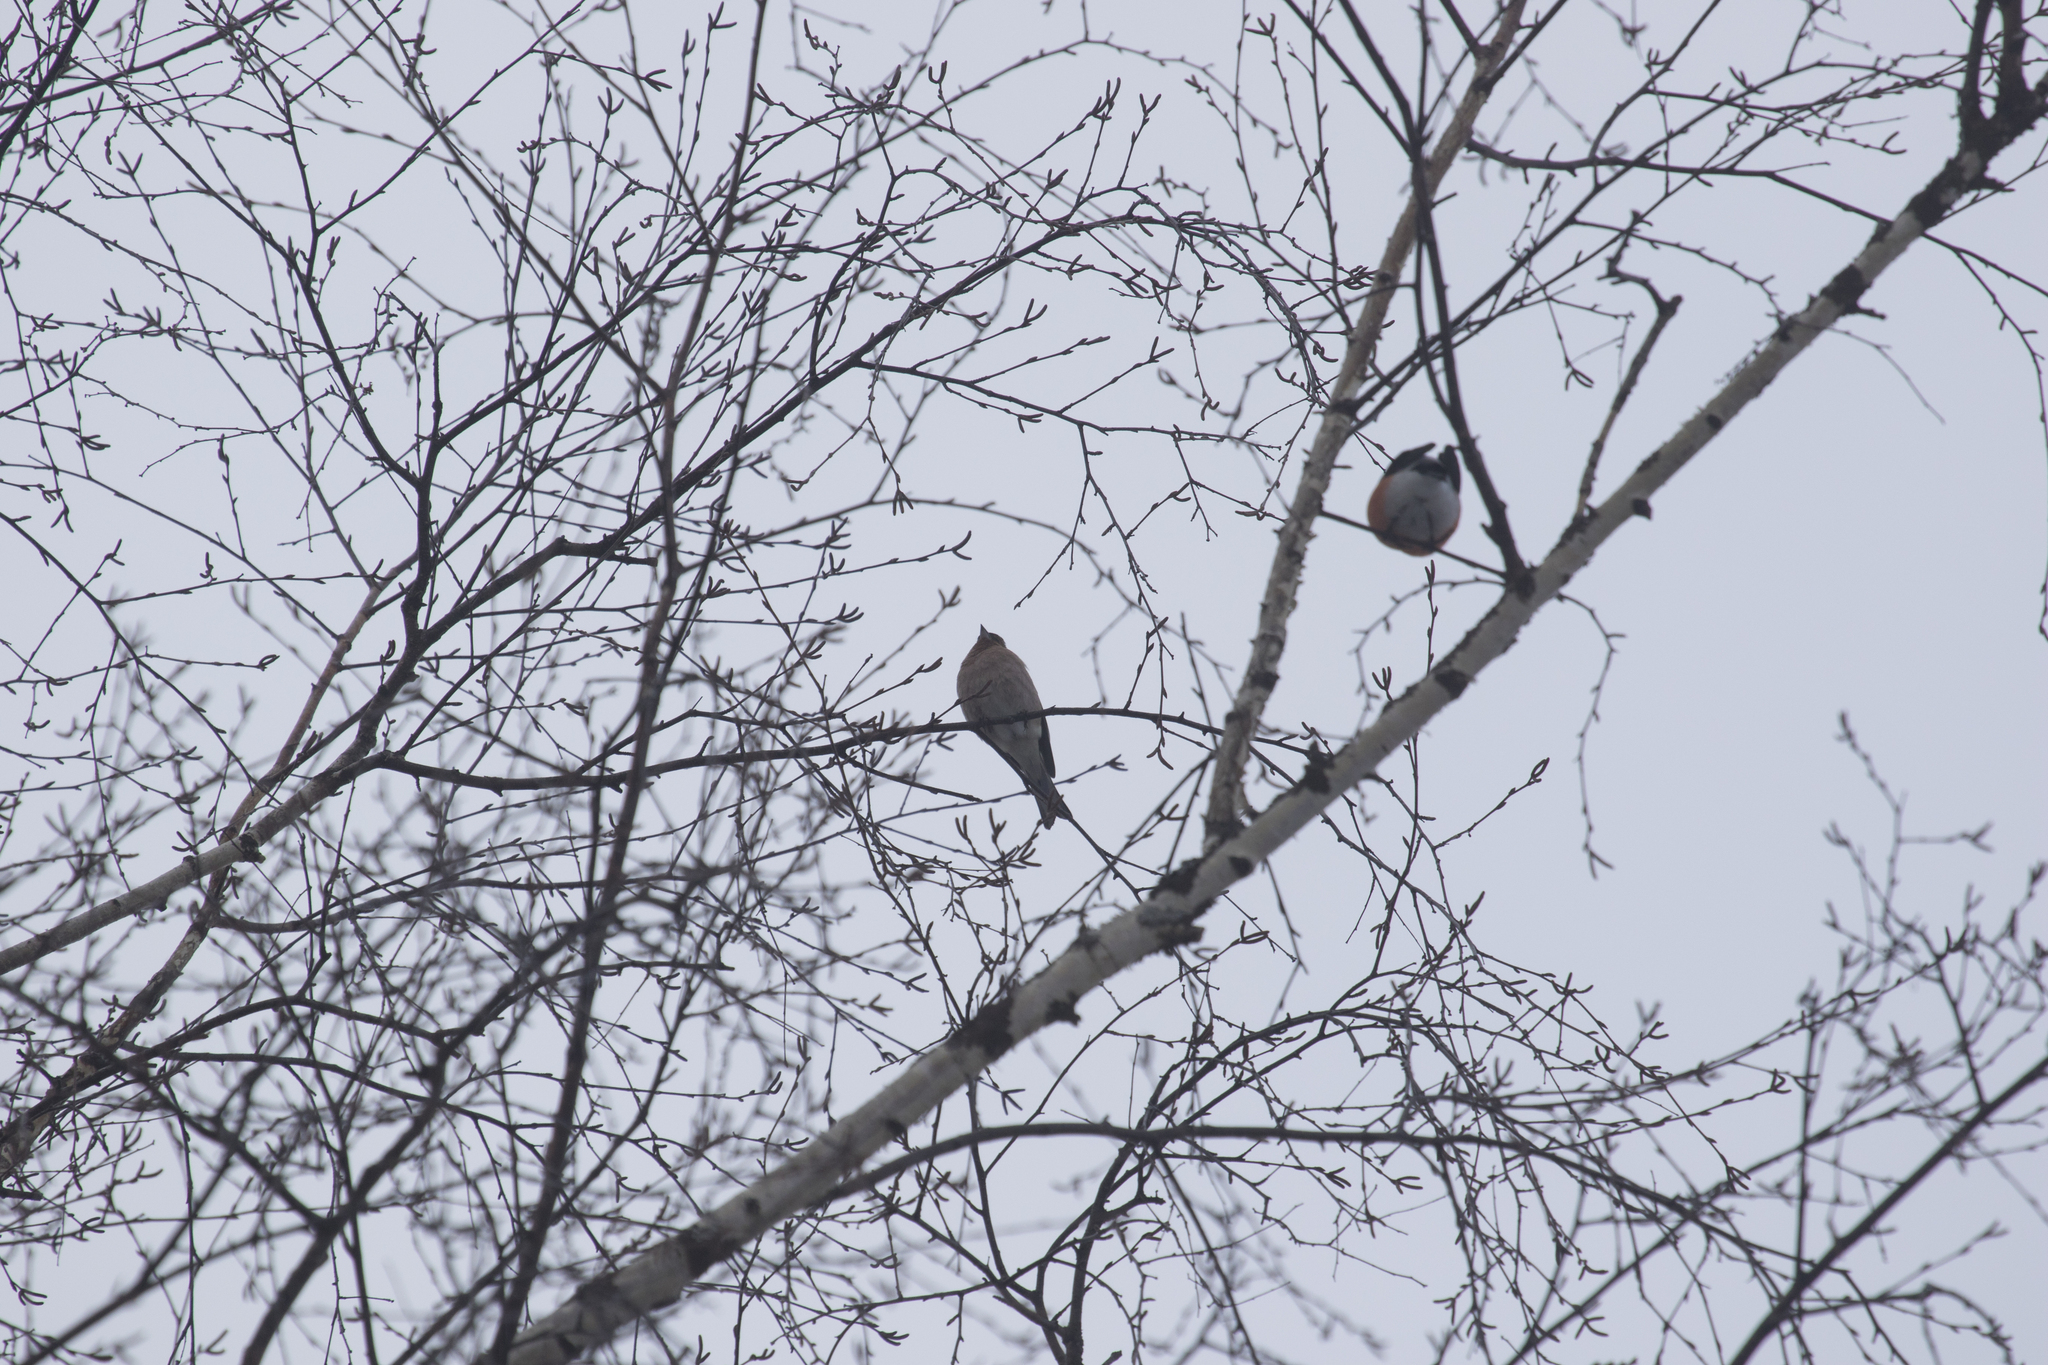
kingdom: Animalia
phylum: Chordata
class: Aves
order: Passeriformes
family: Fringillidae
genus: Fringilla
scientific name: Fringilla coelebs
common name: Common chaffinch
